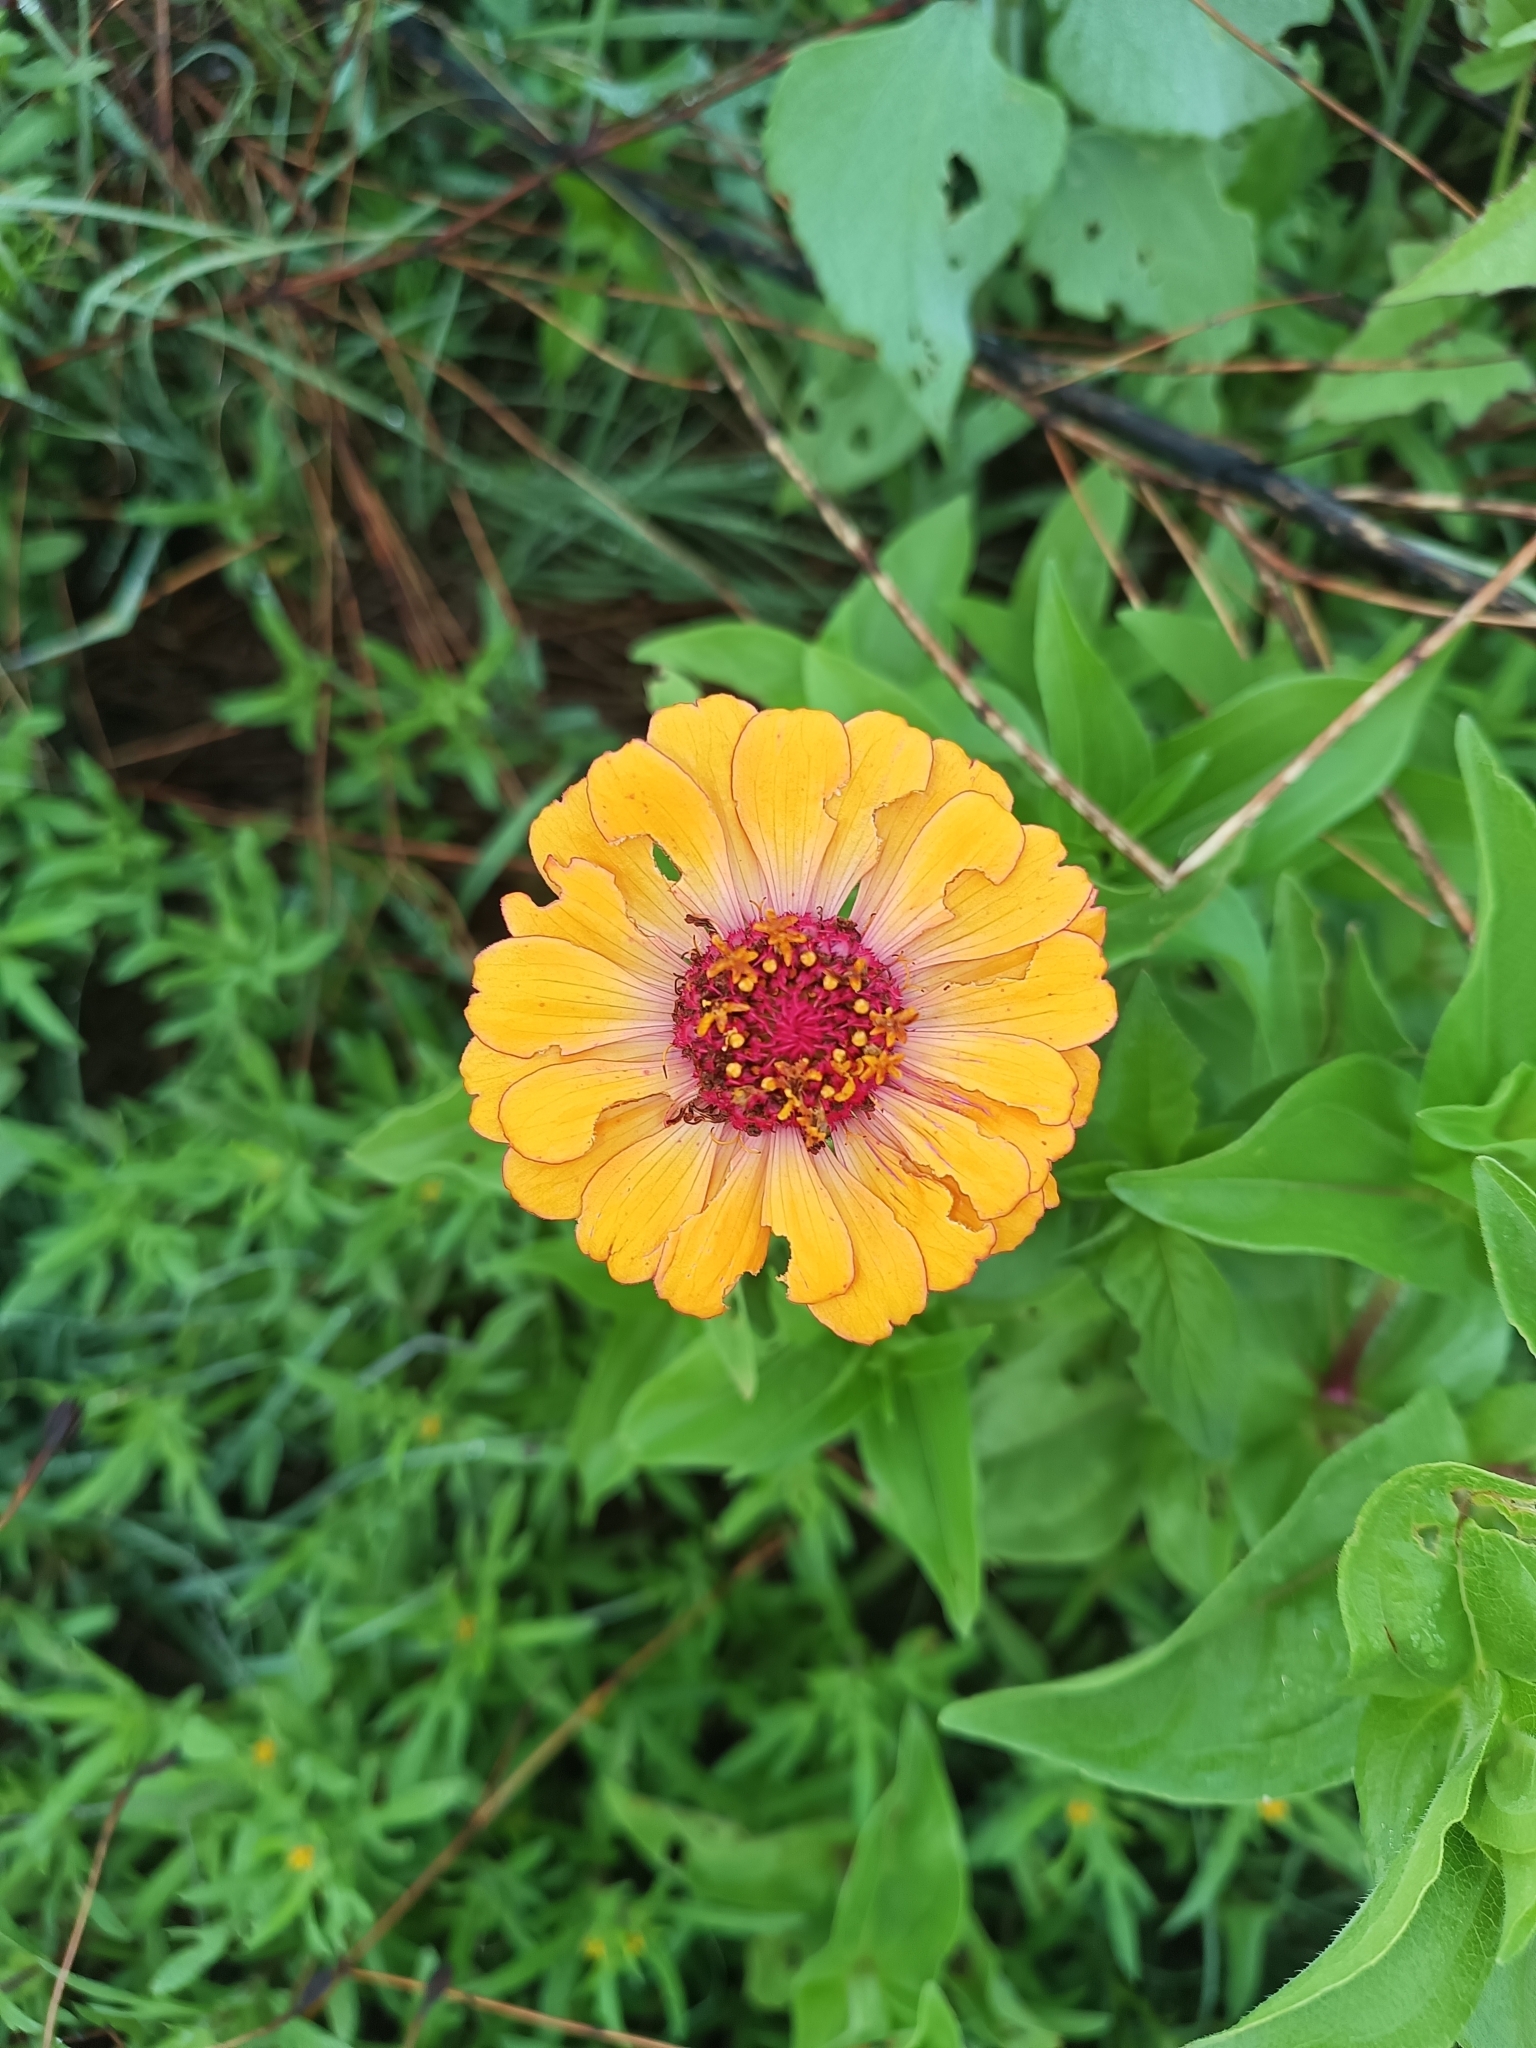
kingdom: Plantae
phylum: Tracheophyta
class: Magnoliopsida
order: Asterales
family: Asteraceae
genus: Zinnia
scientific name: Zinnia elegans
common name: Youth-and-age
